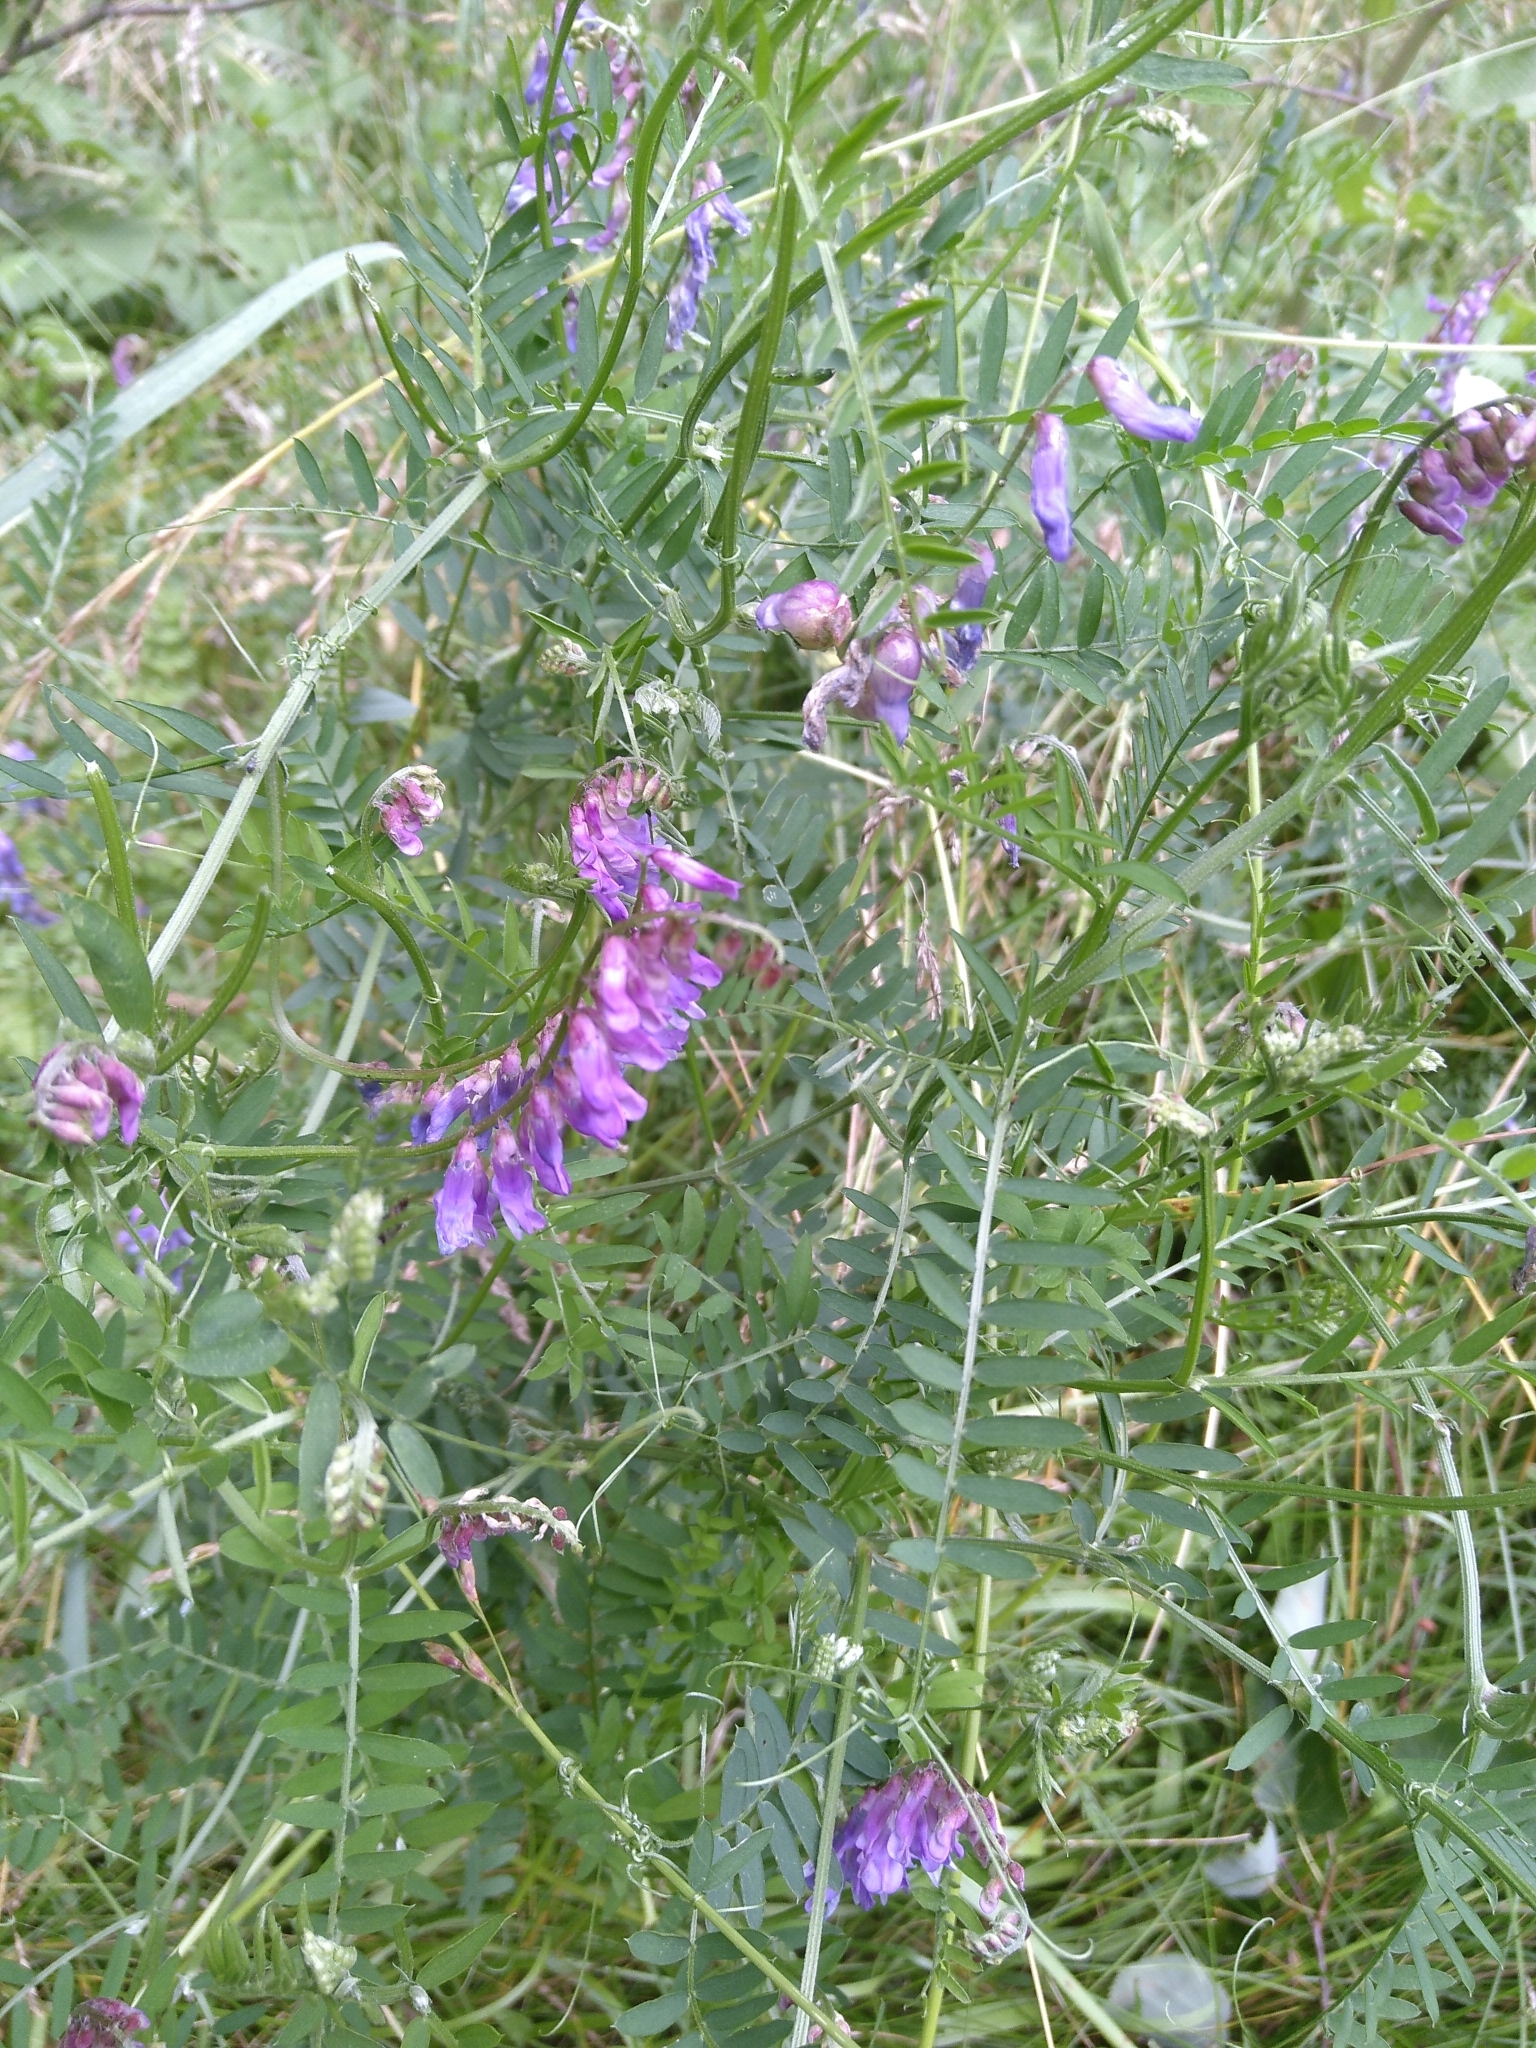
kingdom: Plantae
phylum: Tracheophyta
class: Magnoliopsida
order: Fabales
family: Fabaceae
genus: Vicia
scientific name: Vicia cracca
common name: Bird vetch
